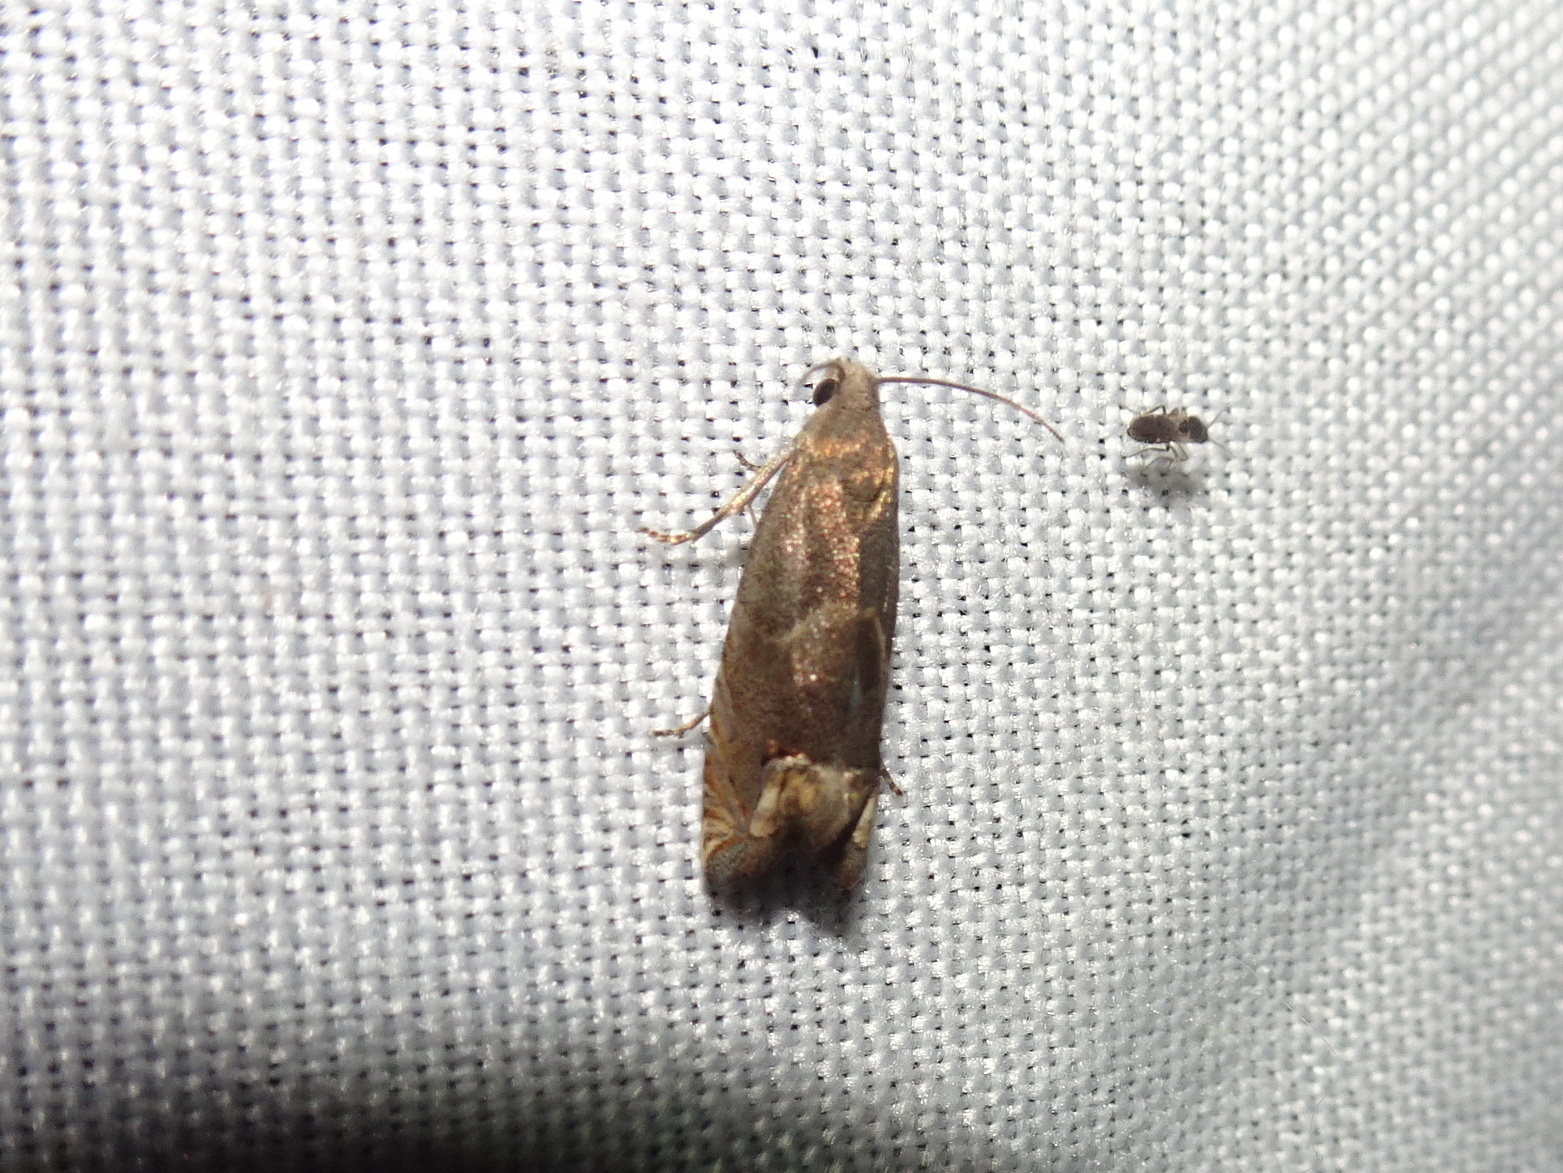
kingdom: Animalia
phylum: Arthropoda
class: Insecta
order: Lepidoptera
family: Tortricidae
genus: Epiblema
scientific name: Epiblema strenuana
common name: Ragweed borer moth
